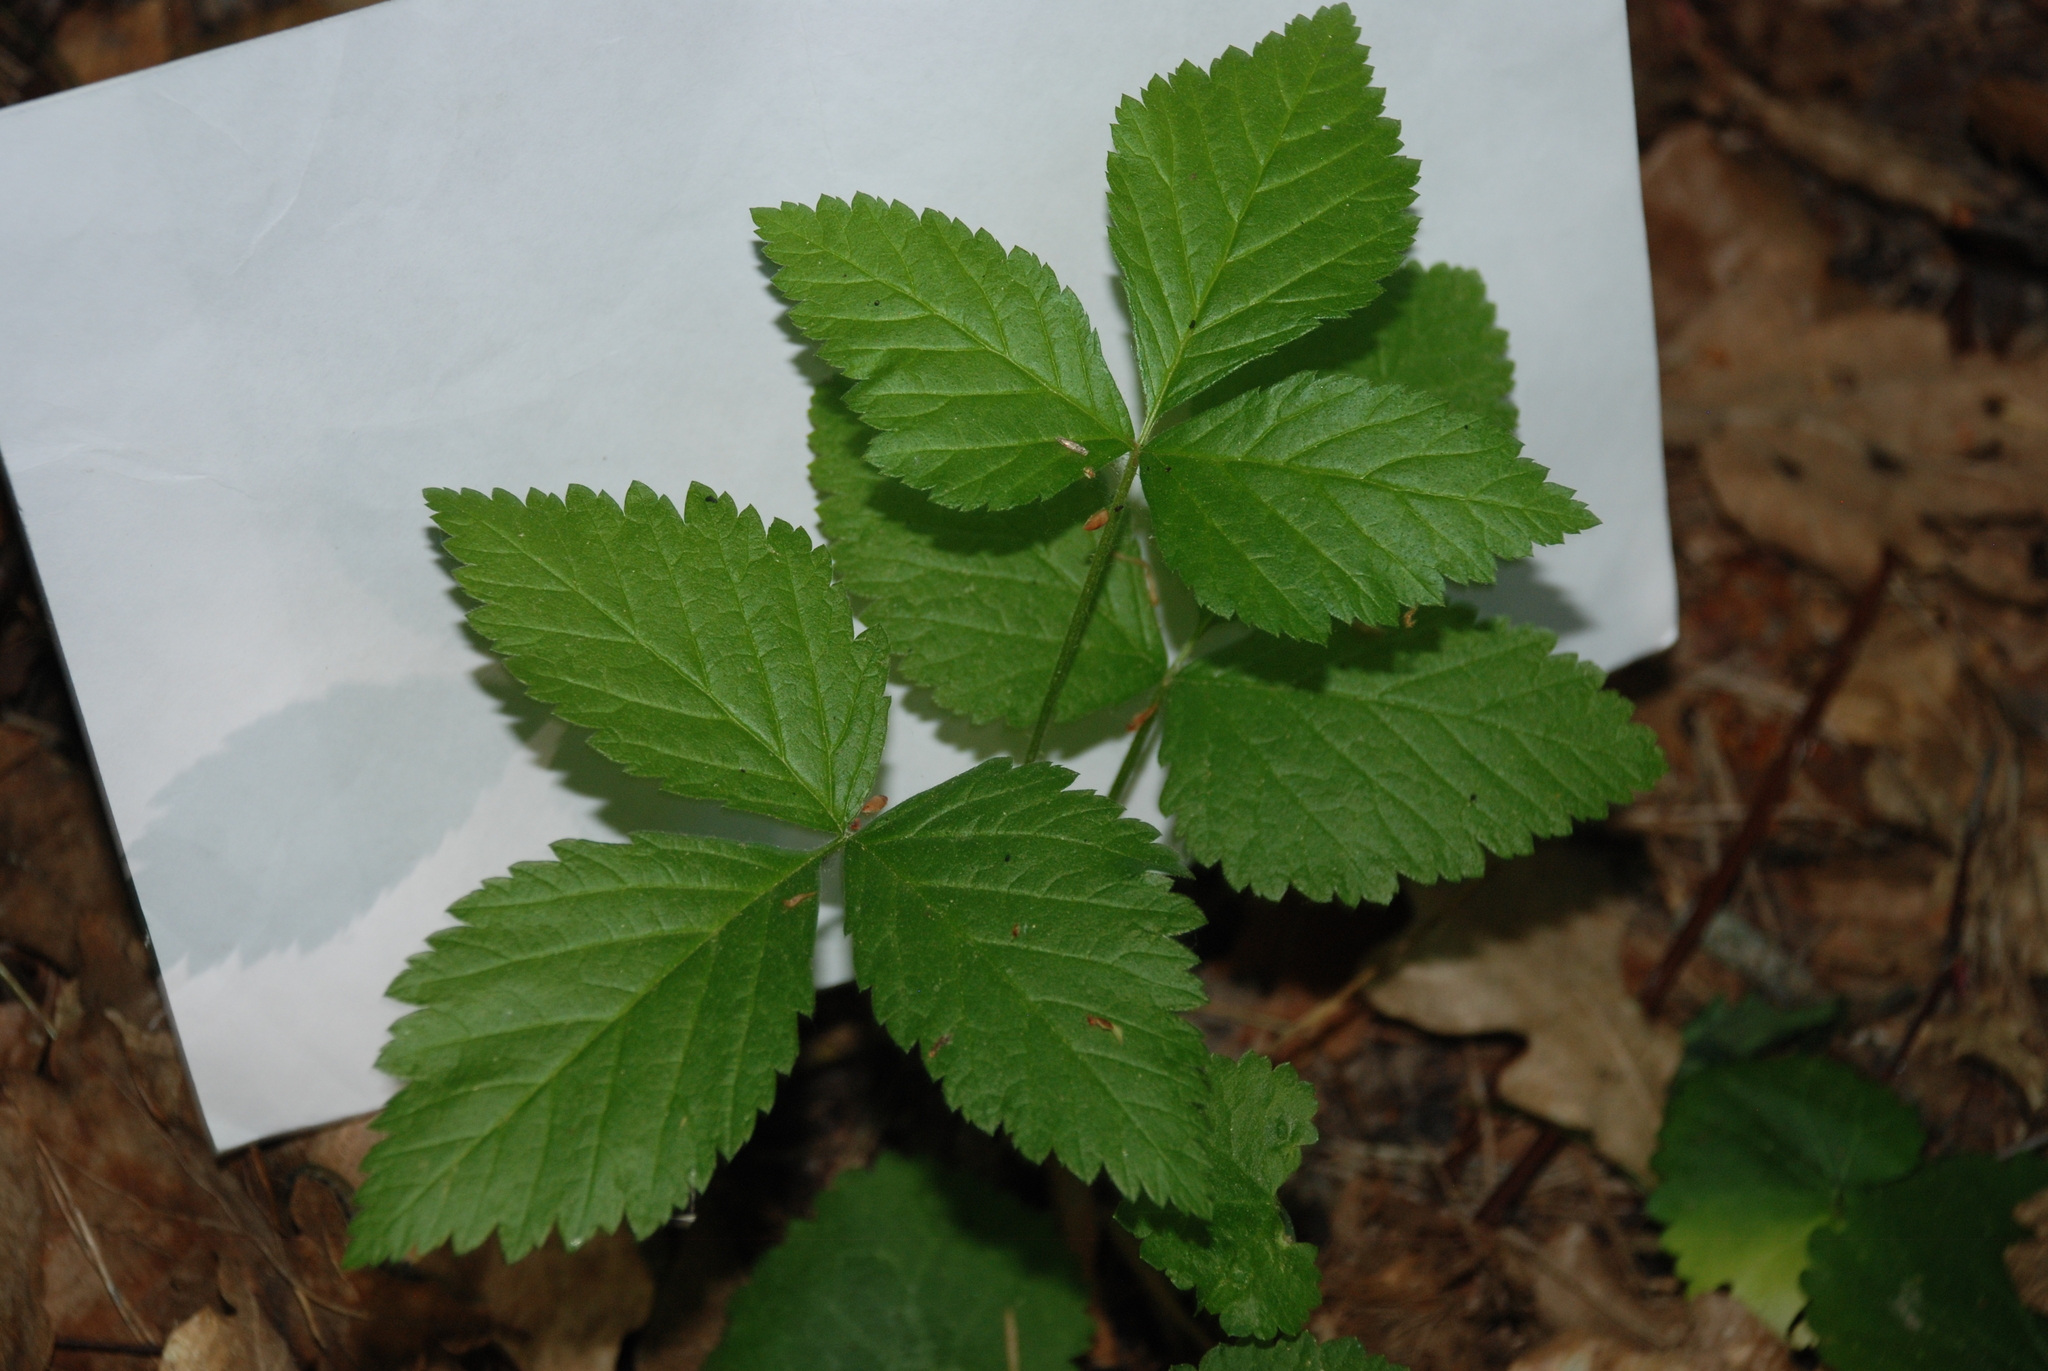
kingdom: Plantae
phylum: Tracheophyta
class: Magnoliopsida
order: Rosales
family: Rosaceae
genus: Rubus
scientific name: Rubus saxatilis
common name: Stone bramble
